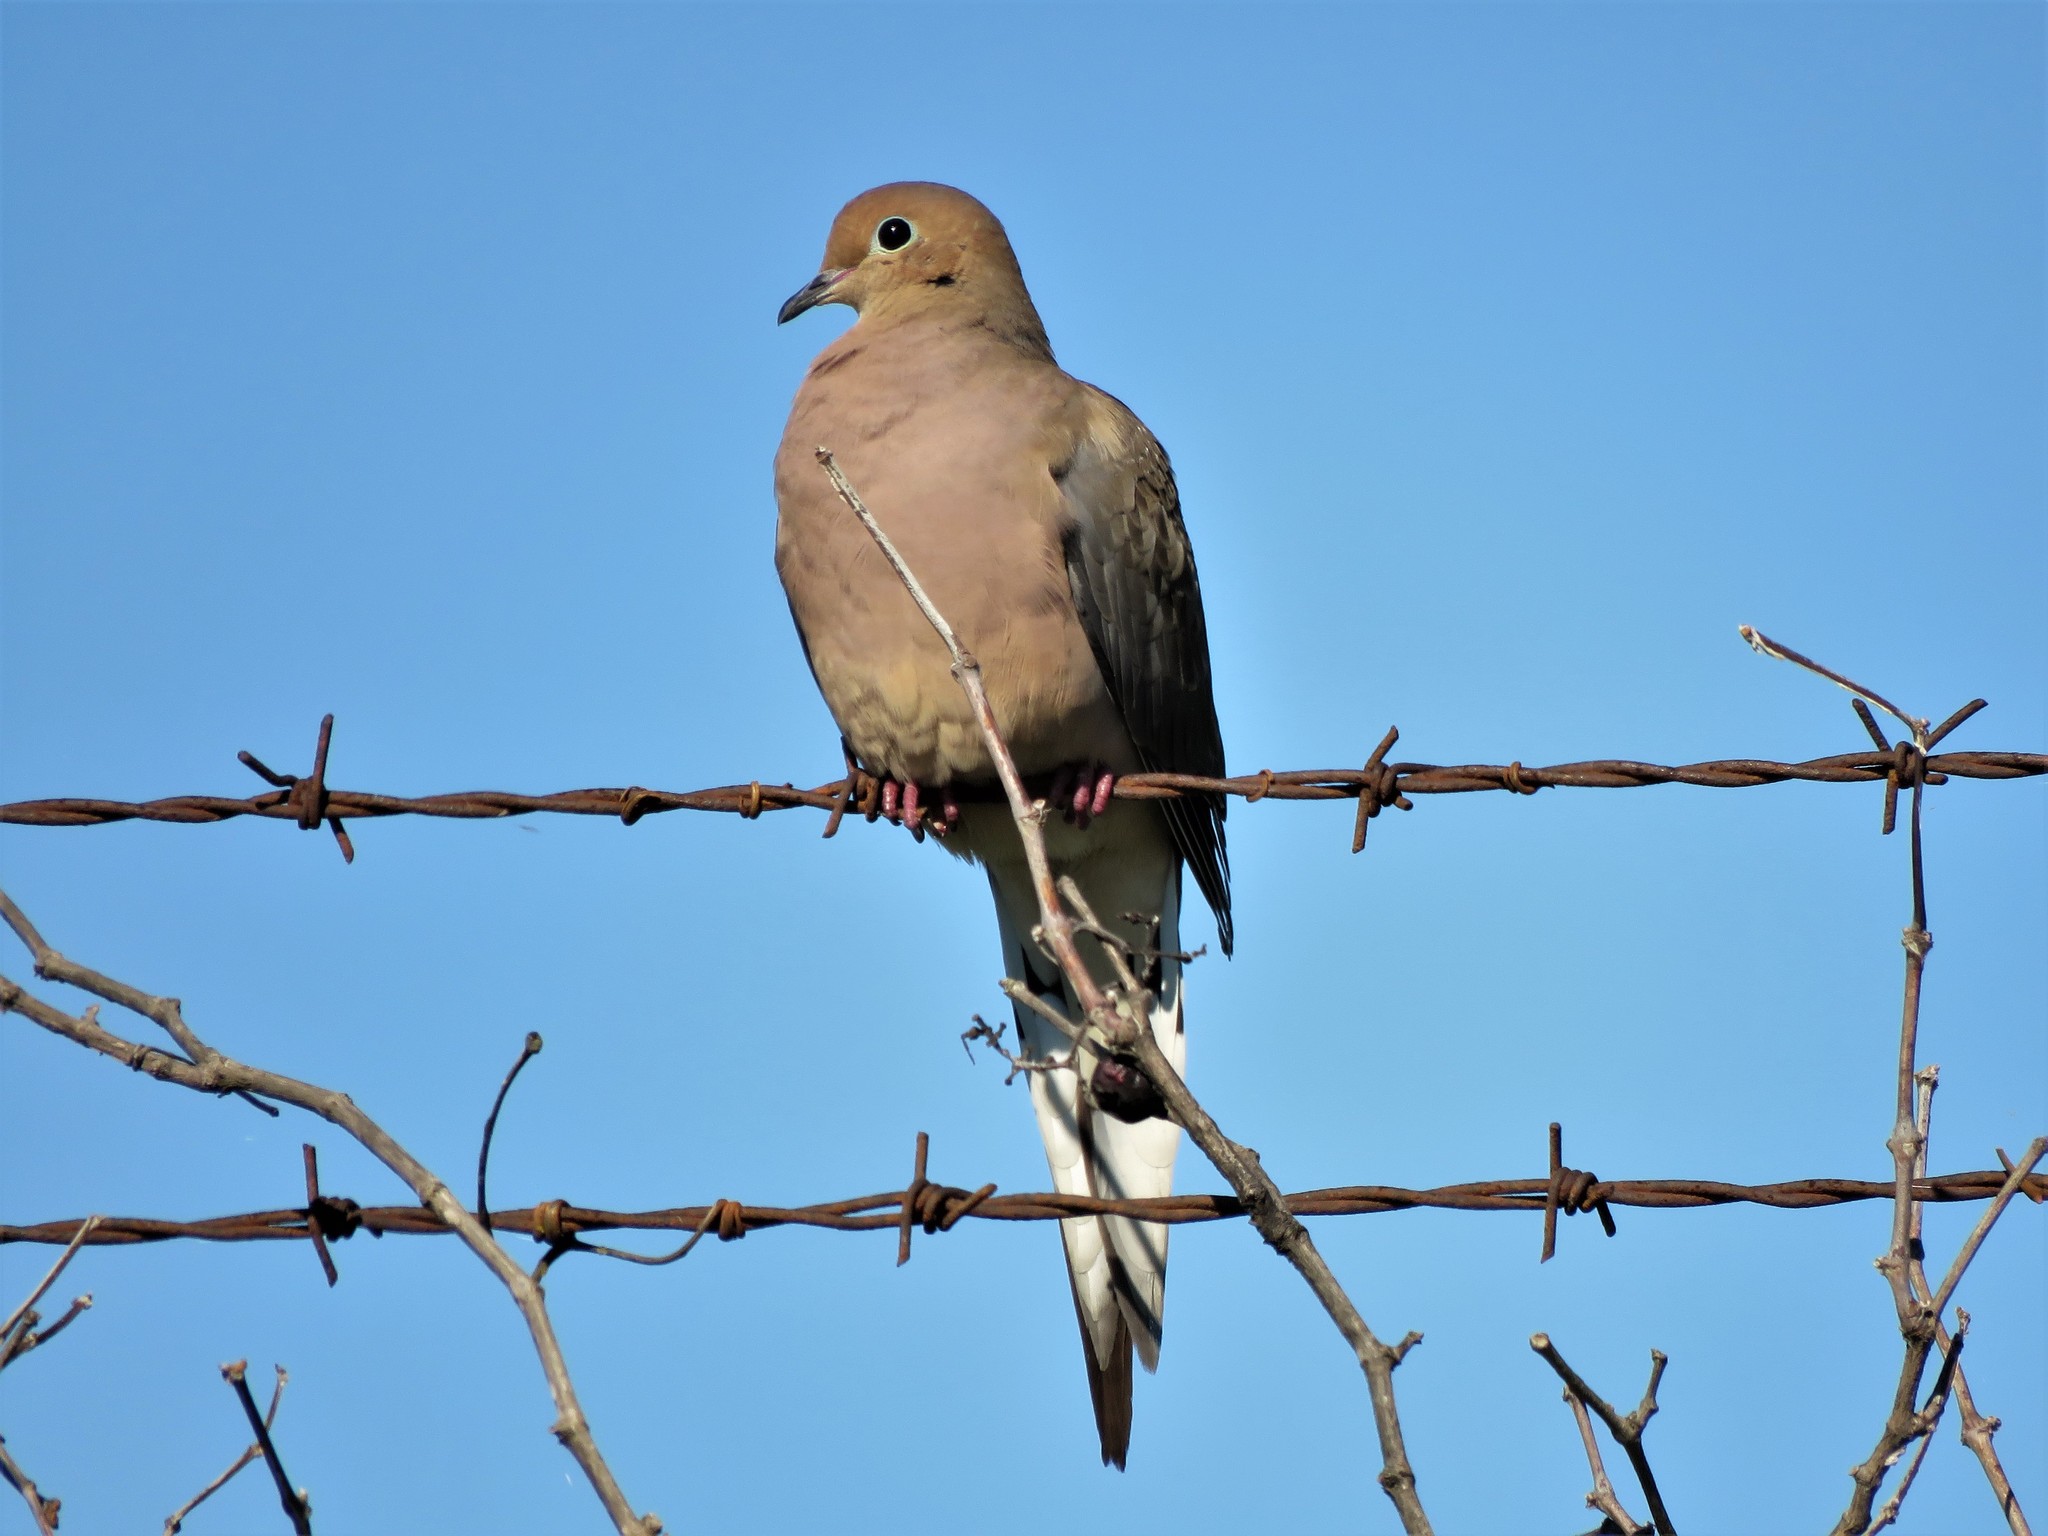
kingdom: Animalia
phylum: Chordata
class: Aves
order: Columbiformes
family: Columbidae
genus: Zenaida
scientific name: Zenaida macroura
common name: Mourning dove
